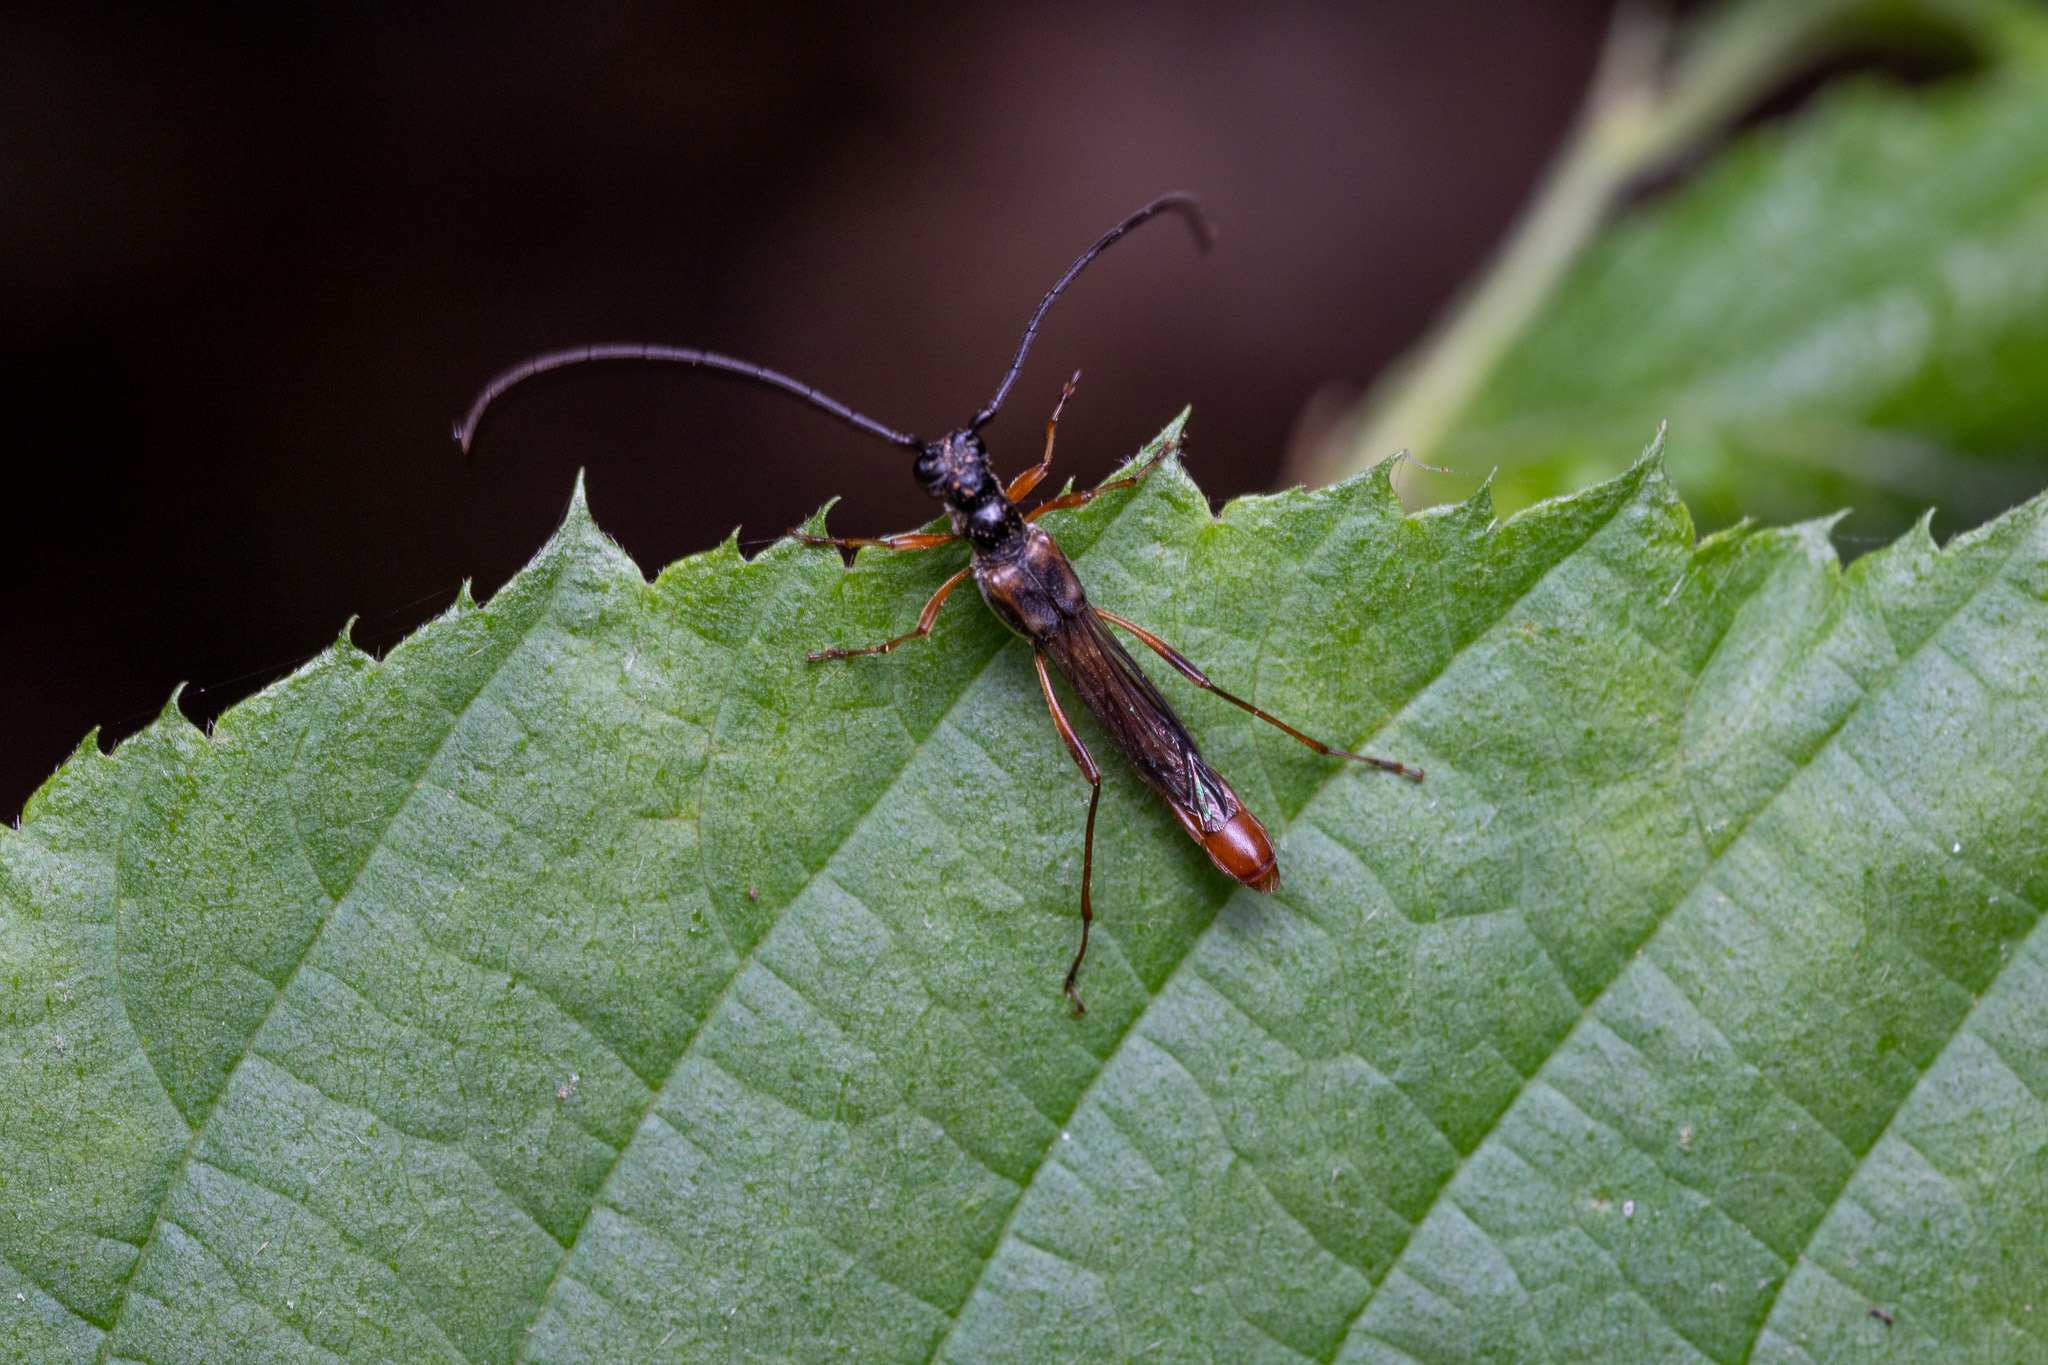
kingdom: Animalia
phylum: Arthropoda
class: Insecta
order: Coleoptera
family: Cerambycidae
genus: Necydalis
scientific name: Necydalis mellita
